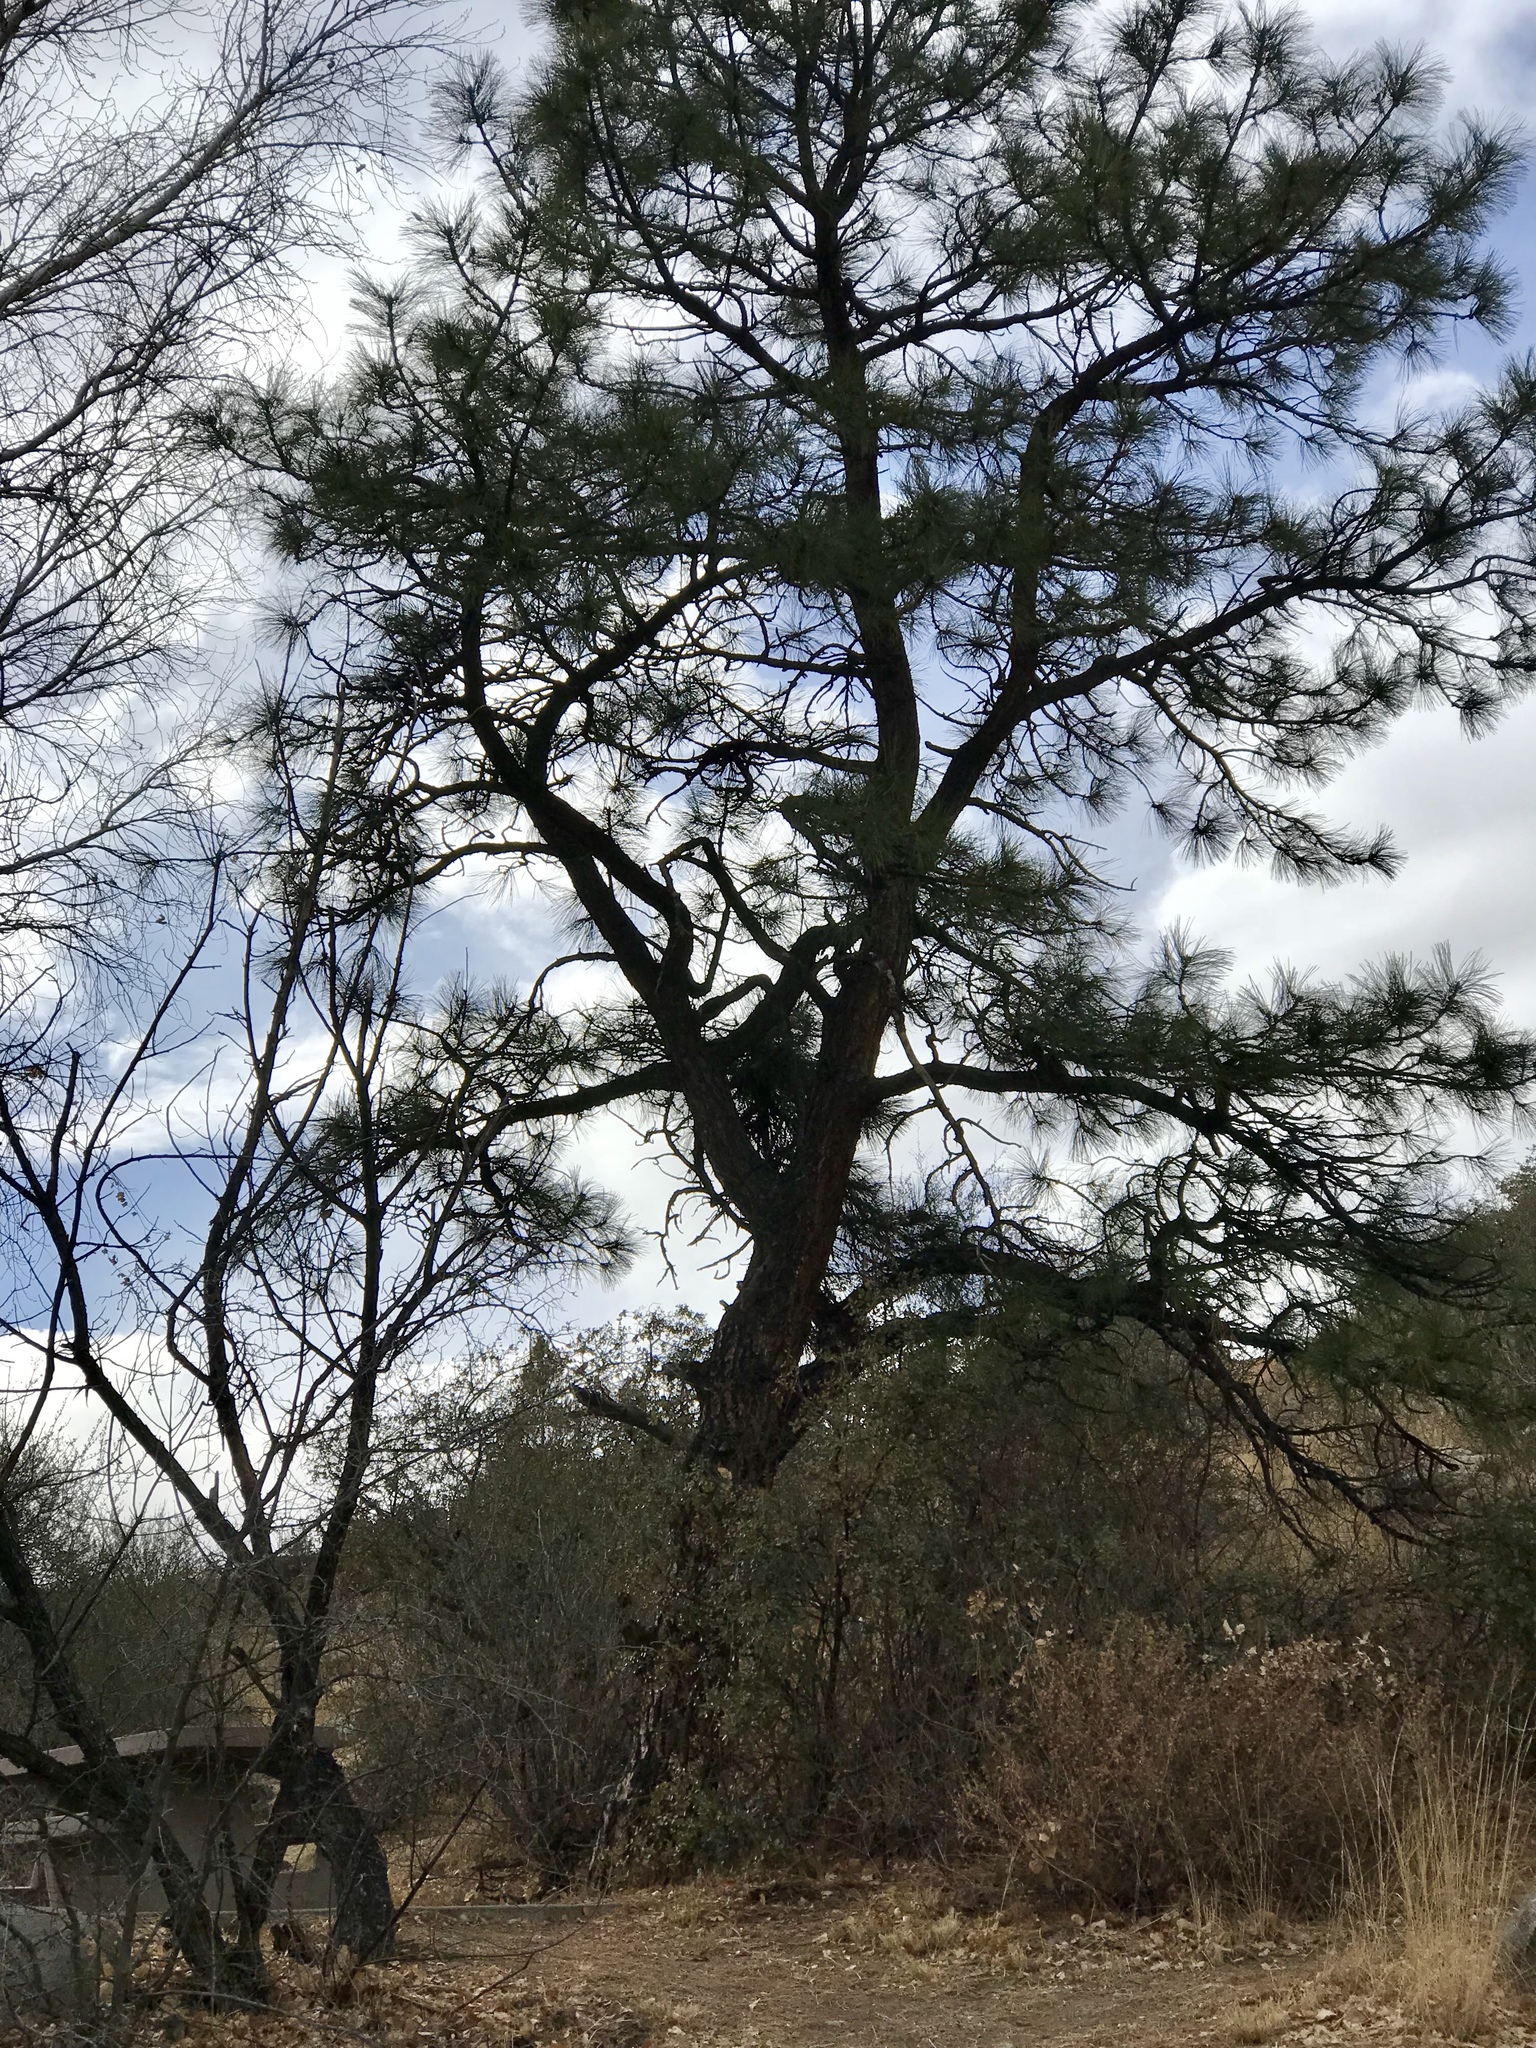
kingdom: Plantae
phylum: Tracheophyta
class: Pinopsida
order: Pinales
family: Pinaceae
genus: Pinus
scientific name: Pinus ponderosa
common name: Western yellow-pine
